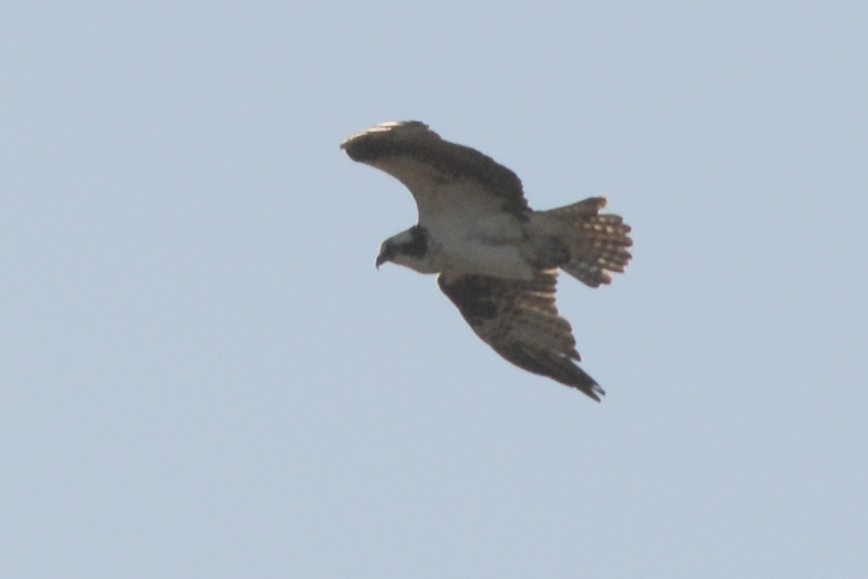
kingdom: Animalia
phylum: Chordata
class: Aves
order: Accipitriformes
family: Pandionidae
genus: Pandion
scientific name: Pandion haliaetus
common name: Osprey
